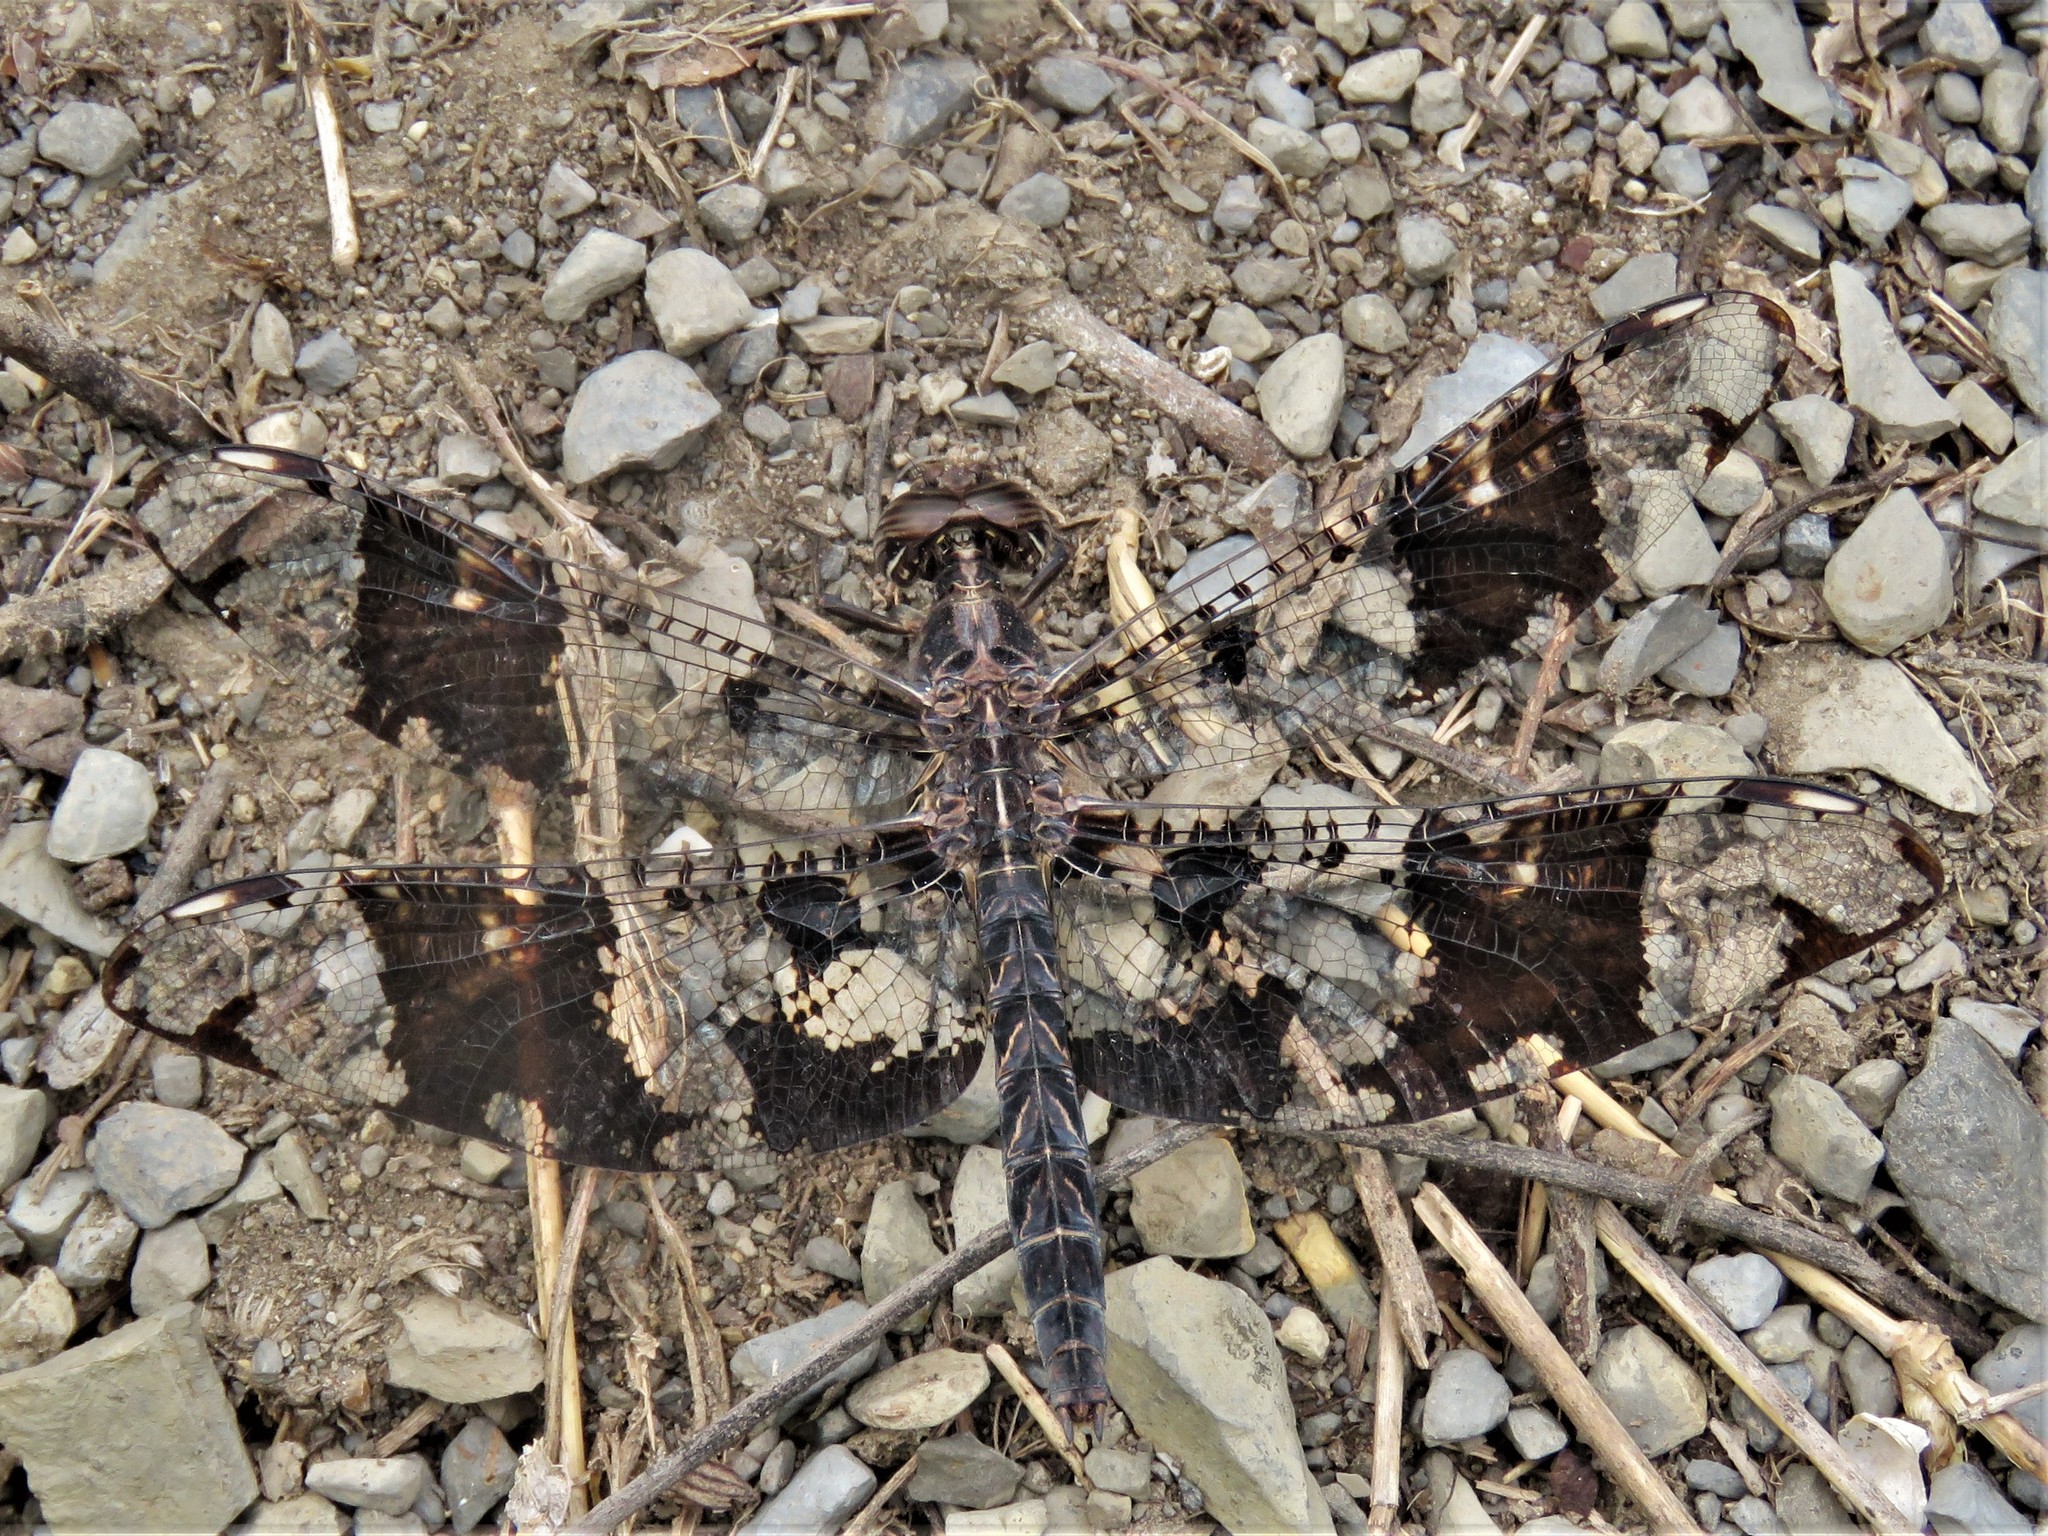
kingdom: Animalia
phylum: Arthropoda
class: Insecta
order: Odonata
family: Libellulidae
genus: Pseudoleon
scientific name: Pseudoleon superbus
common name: Filigree skimmer
